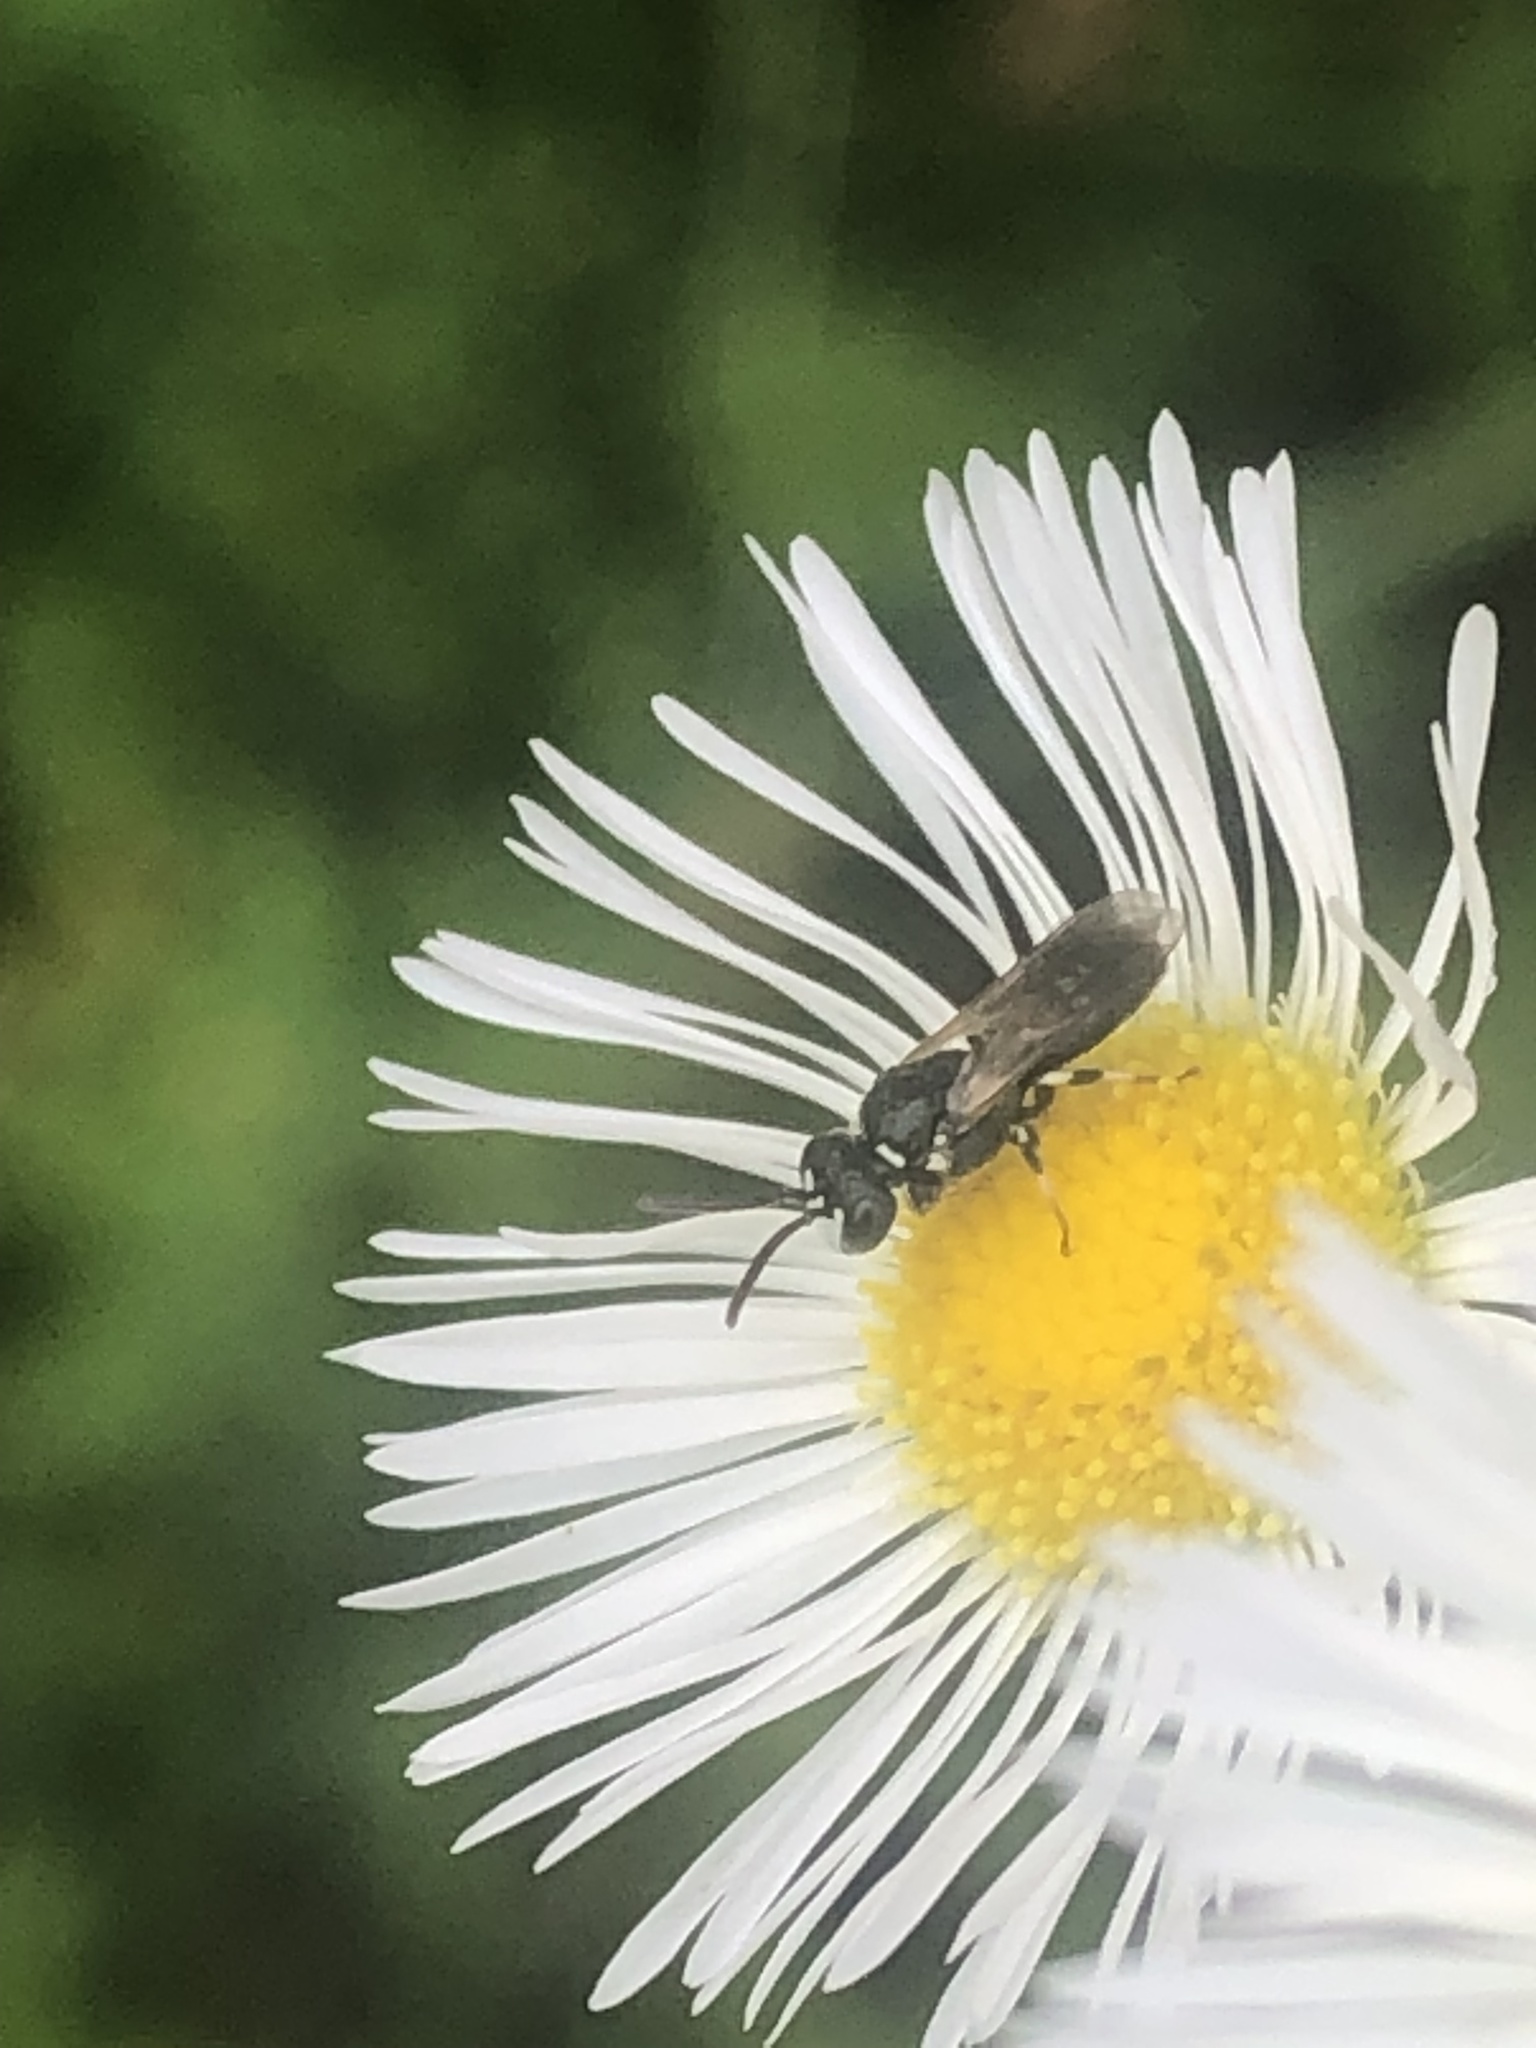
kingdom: Animalia
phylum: Arthropoda
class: Insecta
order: Hymenoptera
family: Colletidae
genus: Hylaeus
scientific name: Hylaeus leptocephalus
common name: Slender-faced masked bee
